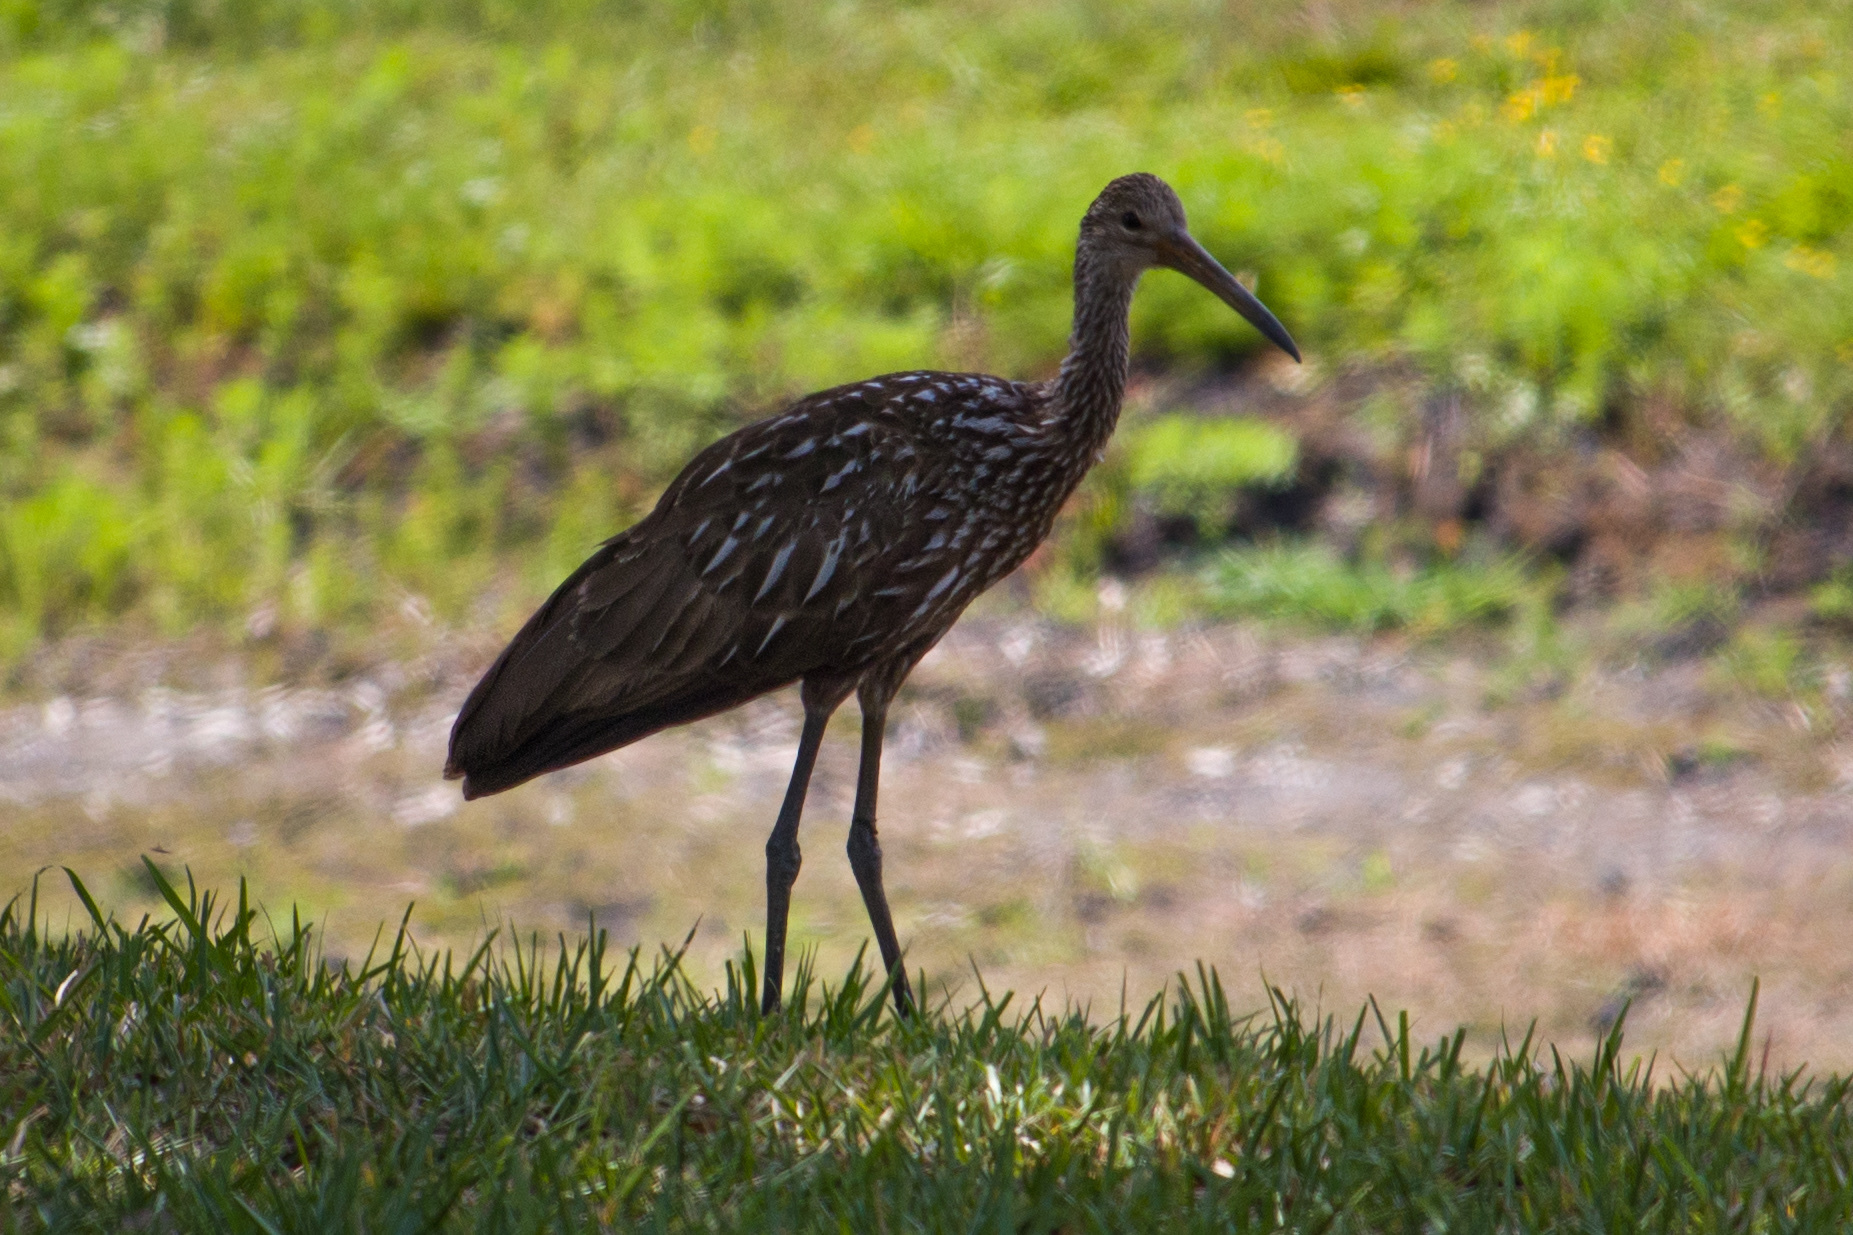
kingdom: Animalia
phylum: Chordata
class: Aves
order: Gruiformes
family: Aramidae
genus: Aramus
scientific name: Aramus guarauna
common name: Limpkin
